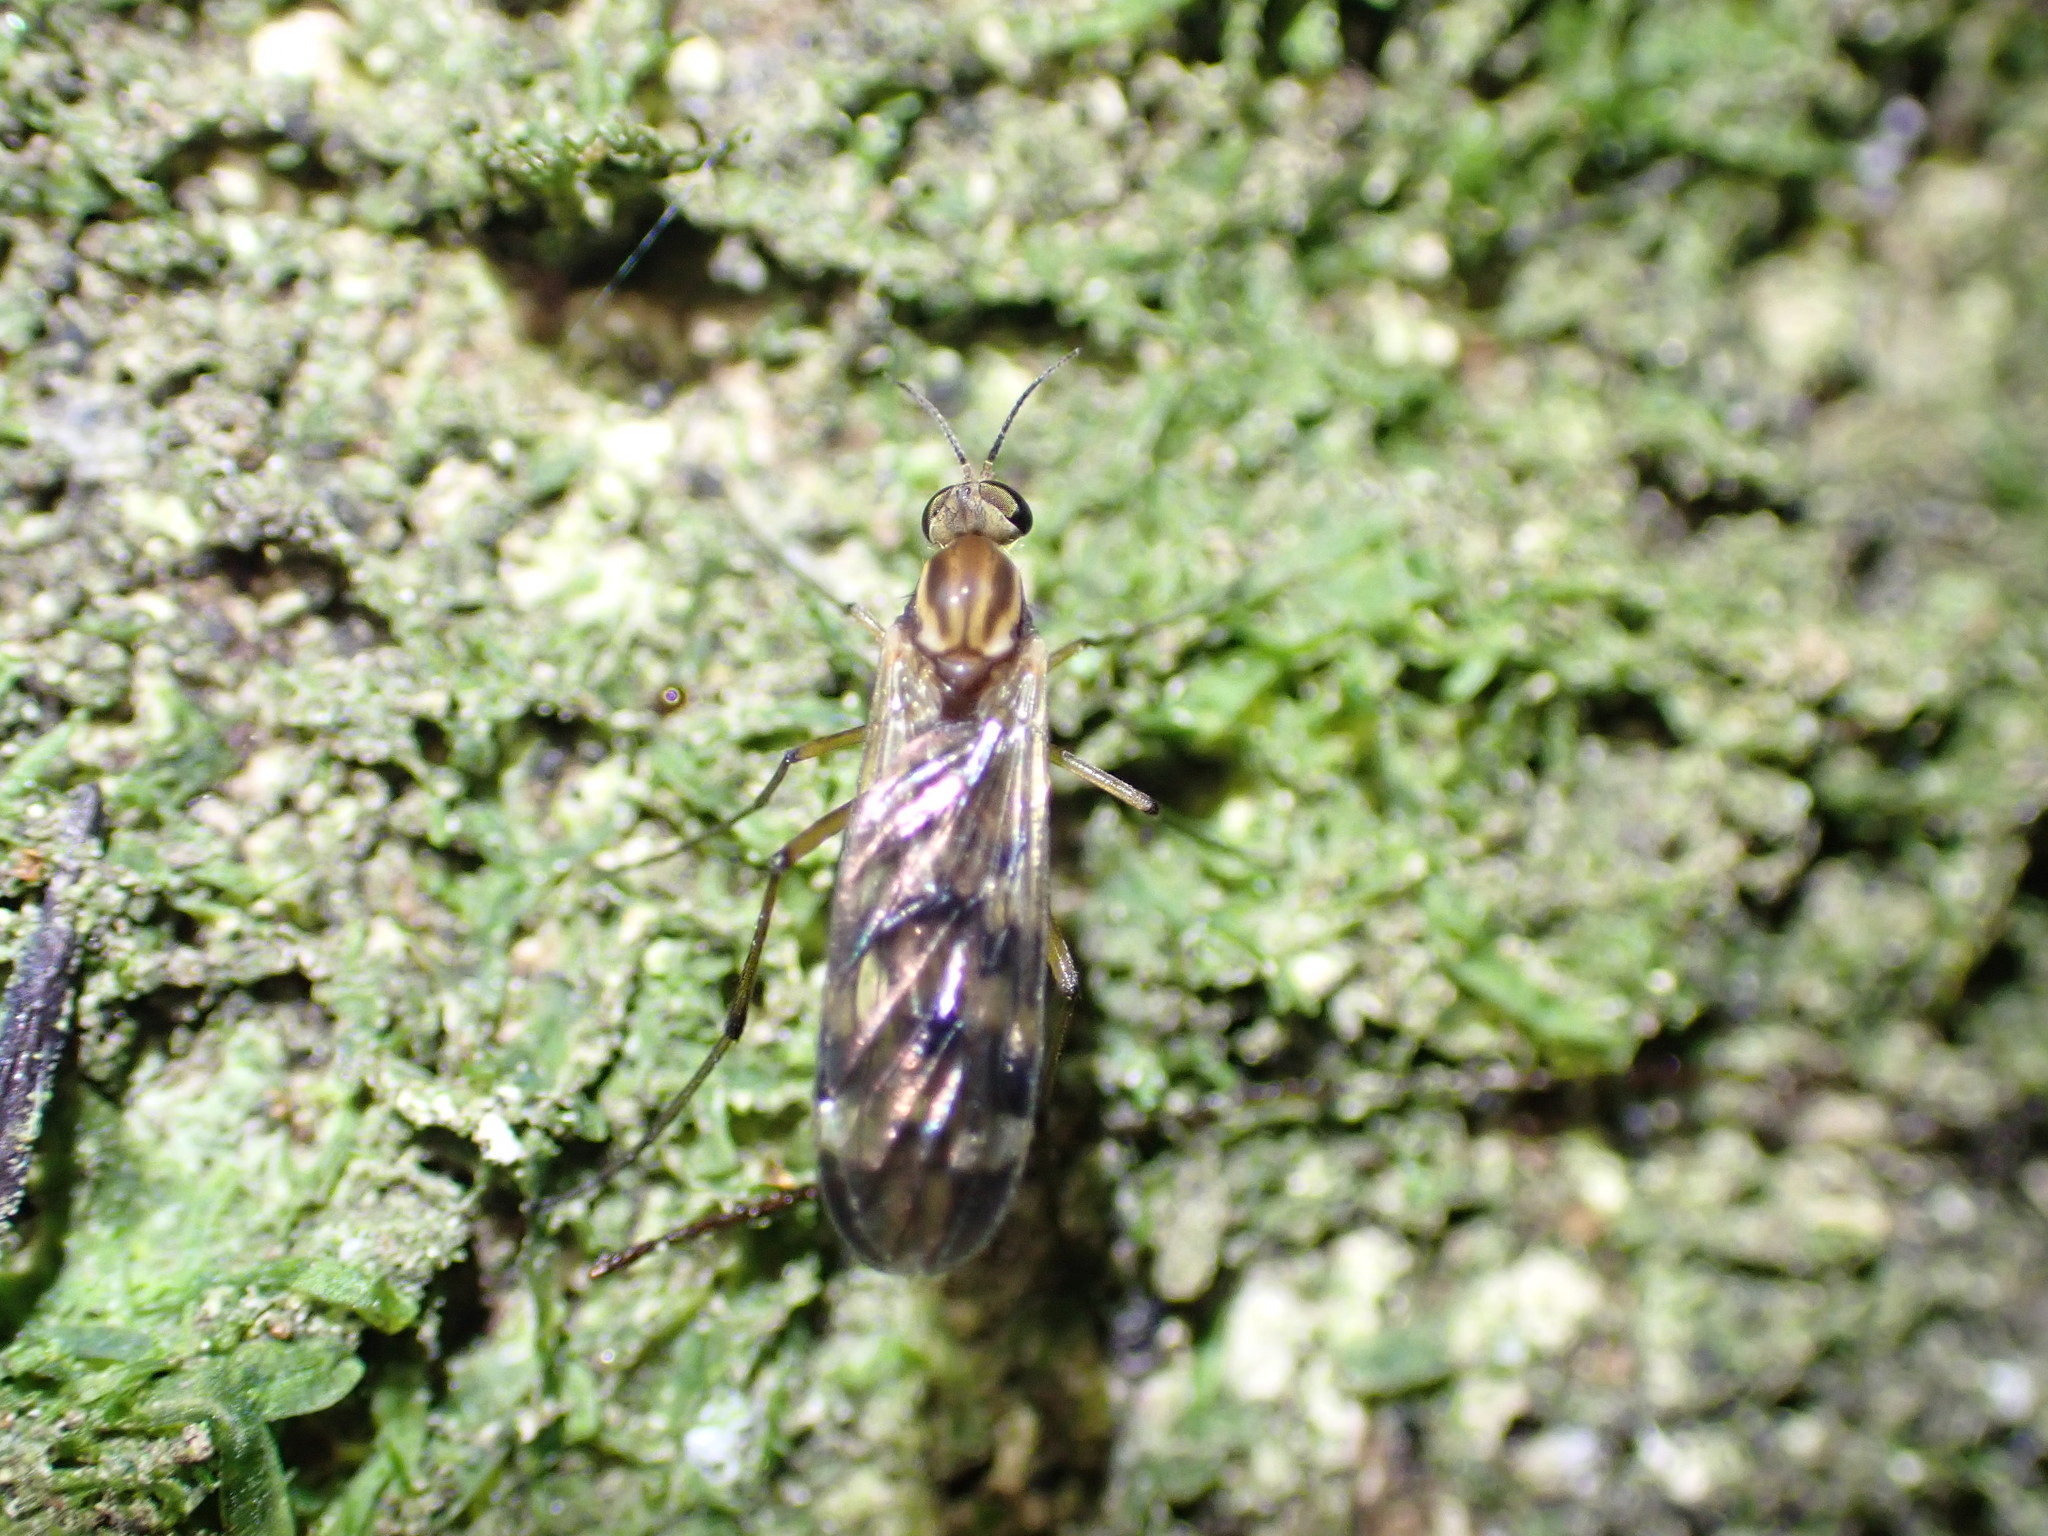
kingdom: Animalia
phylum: Arthropoda
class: Insecta
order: Diptera
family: Anisopodidae
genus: Sylvicola
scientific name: Sylvicola notatus
